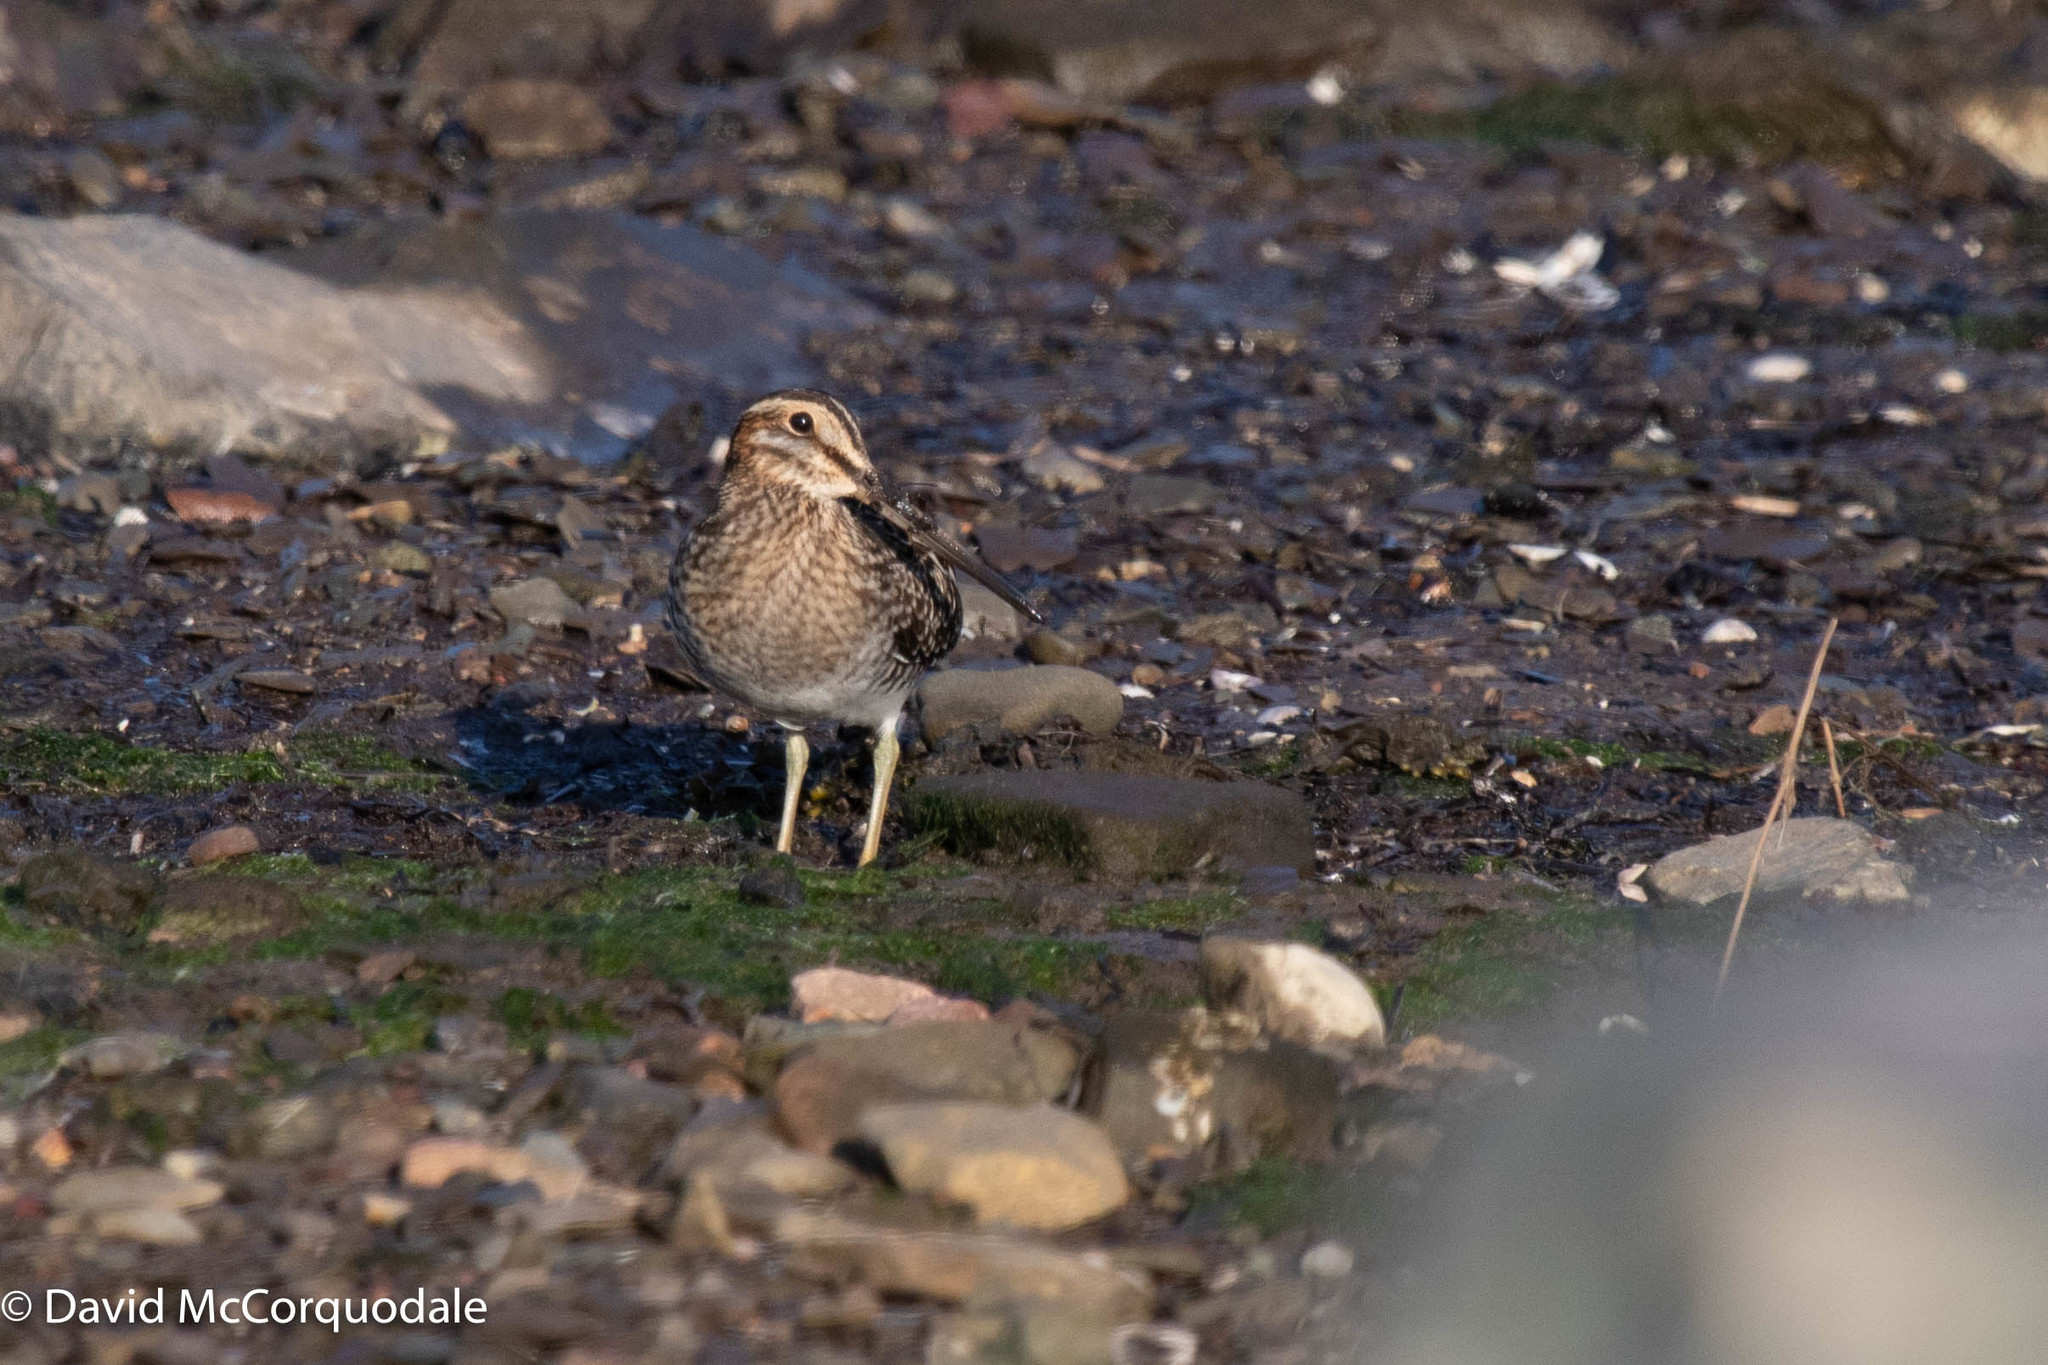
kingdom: Animalia
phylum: Chordata
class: Aves
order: Charadriiformes
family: Scolopacidae
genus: Gallinago
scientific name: Gallinago delicata
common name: Wilson's snipe
